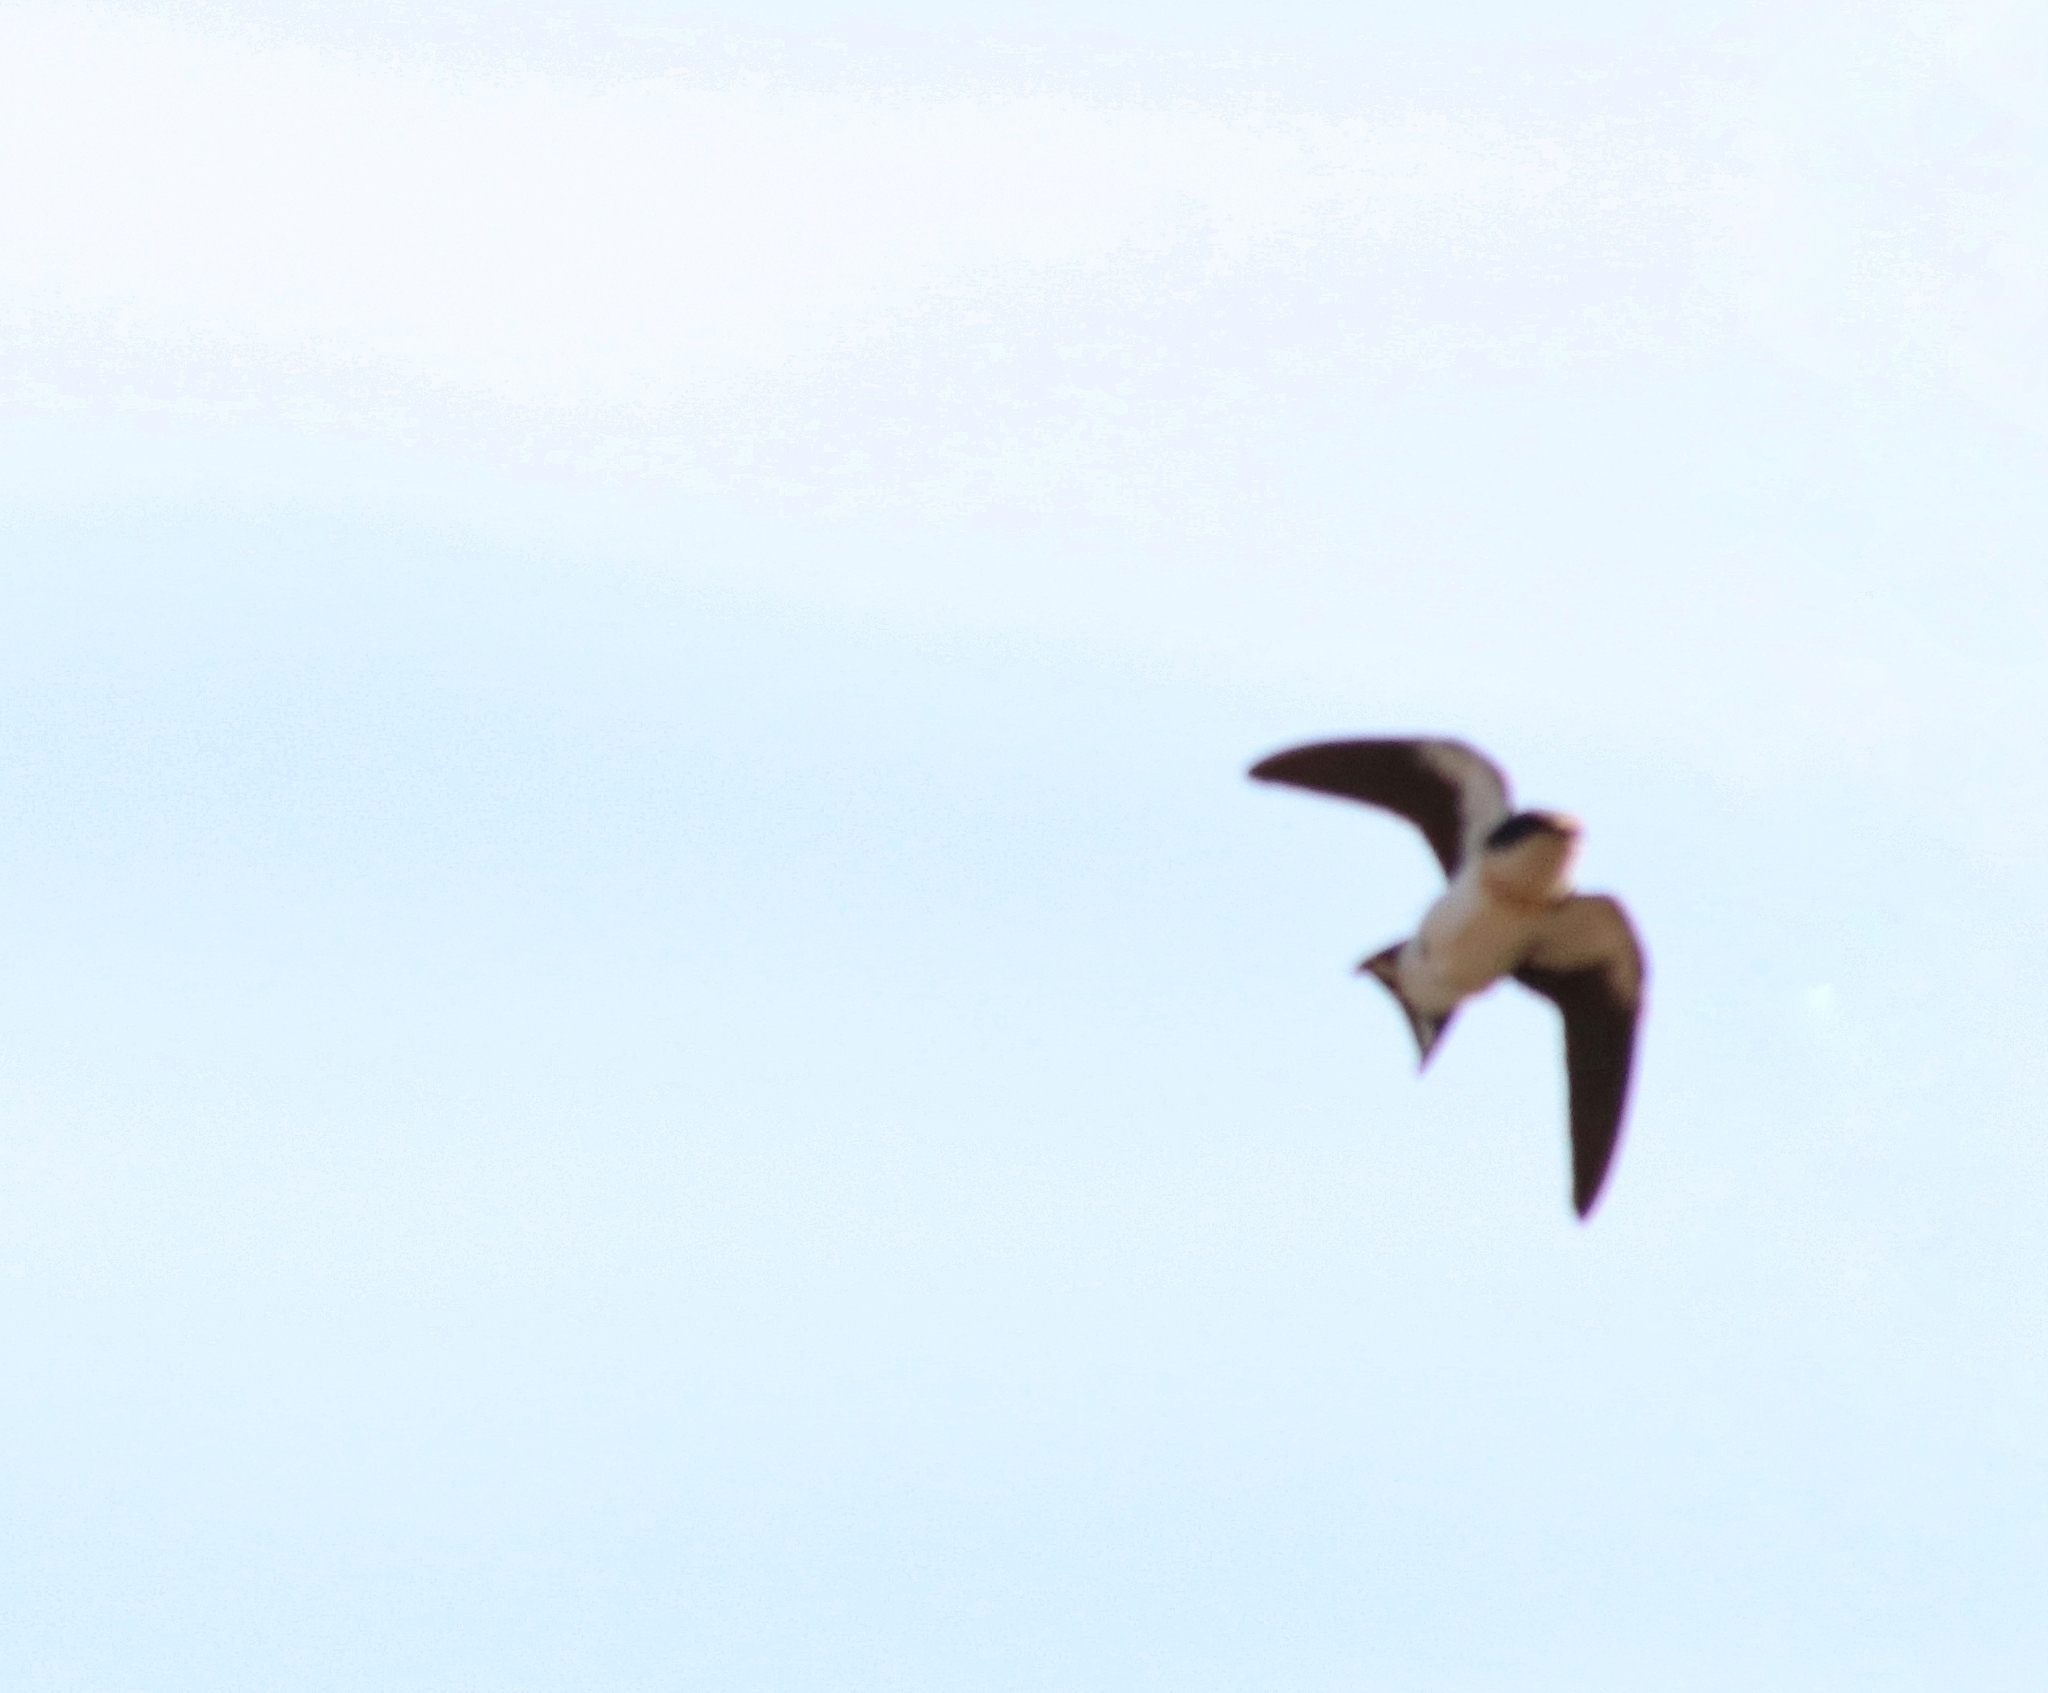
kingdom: Animalia
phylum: Chordata
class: Aves
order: Passeriformes
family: Hirundinidae
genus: Hirundo
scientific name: Hirundo smithii
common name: Wire-tailed swallow
